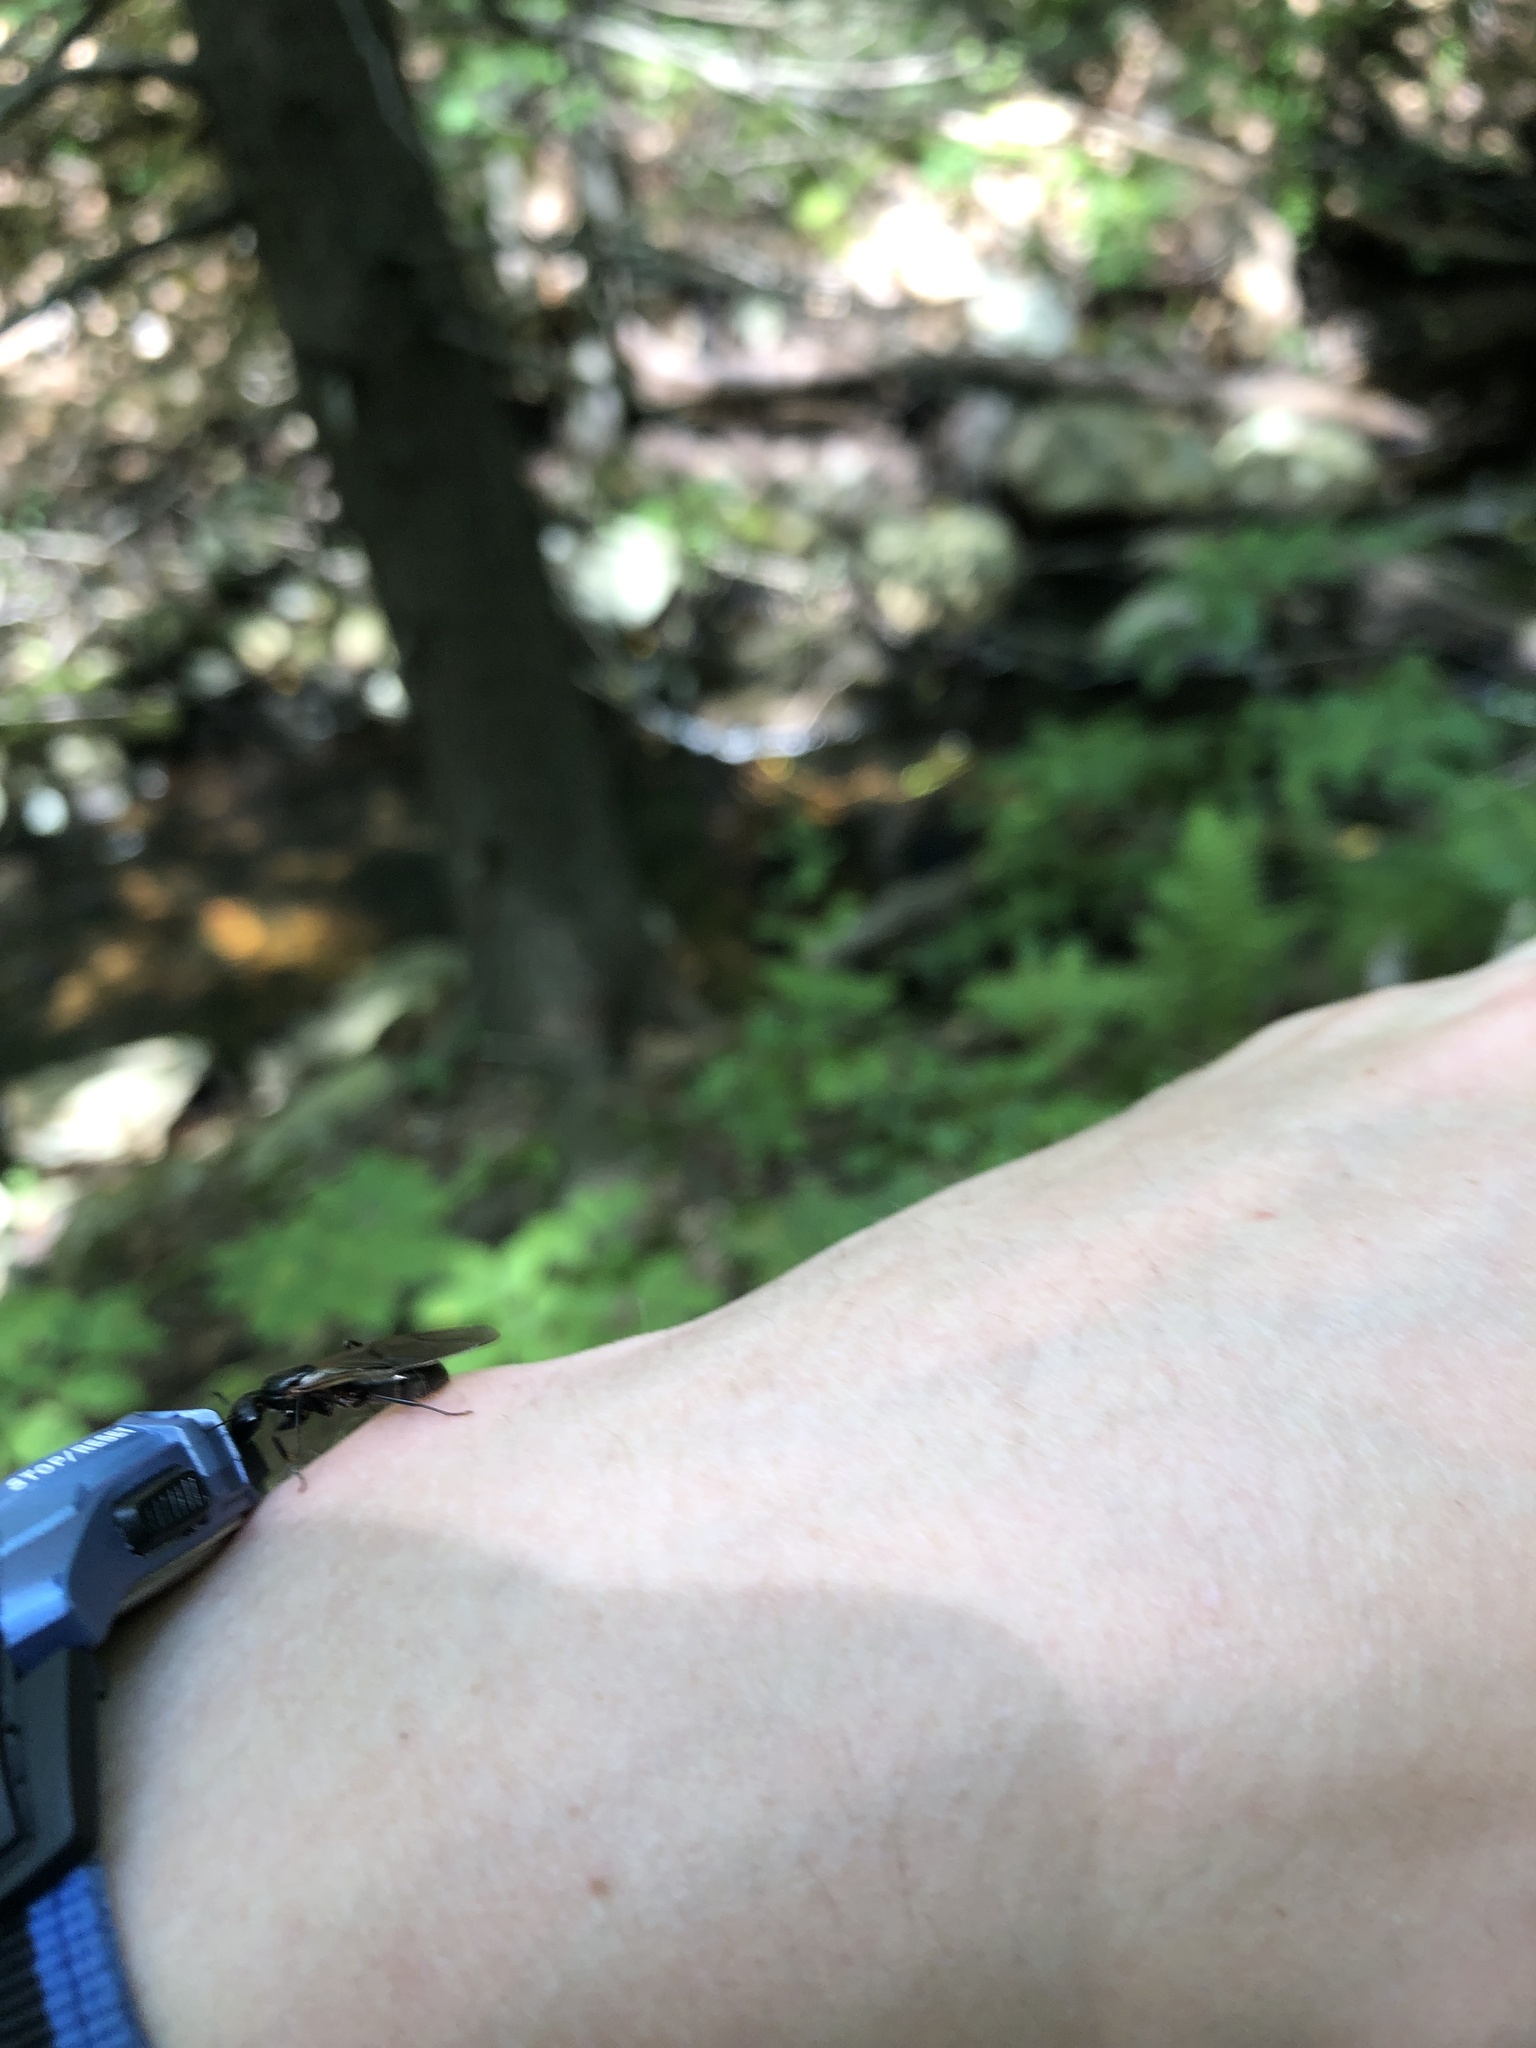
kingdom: Animalia
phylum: Arthropoda
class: Insecta
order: Hymenoptera
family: Formicidae
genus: Camponotus
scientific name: Camponotus pennsylvanicus
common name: Black carpenter ant
